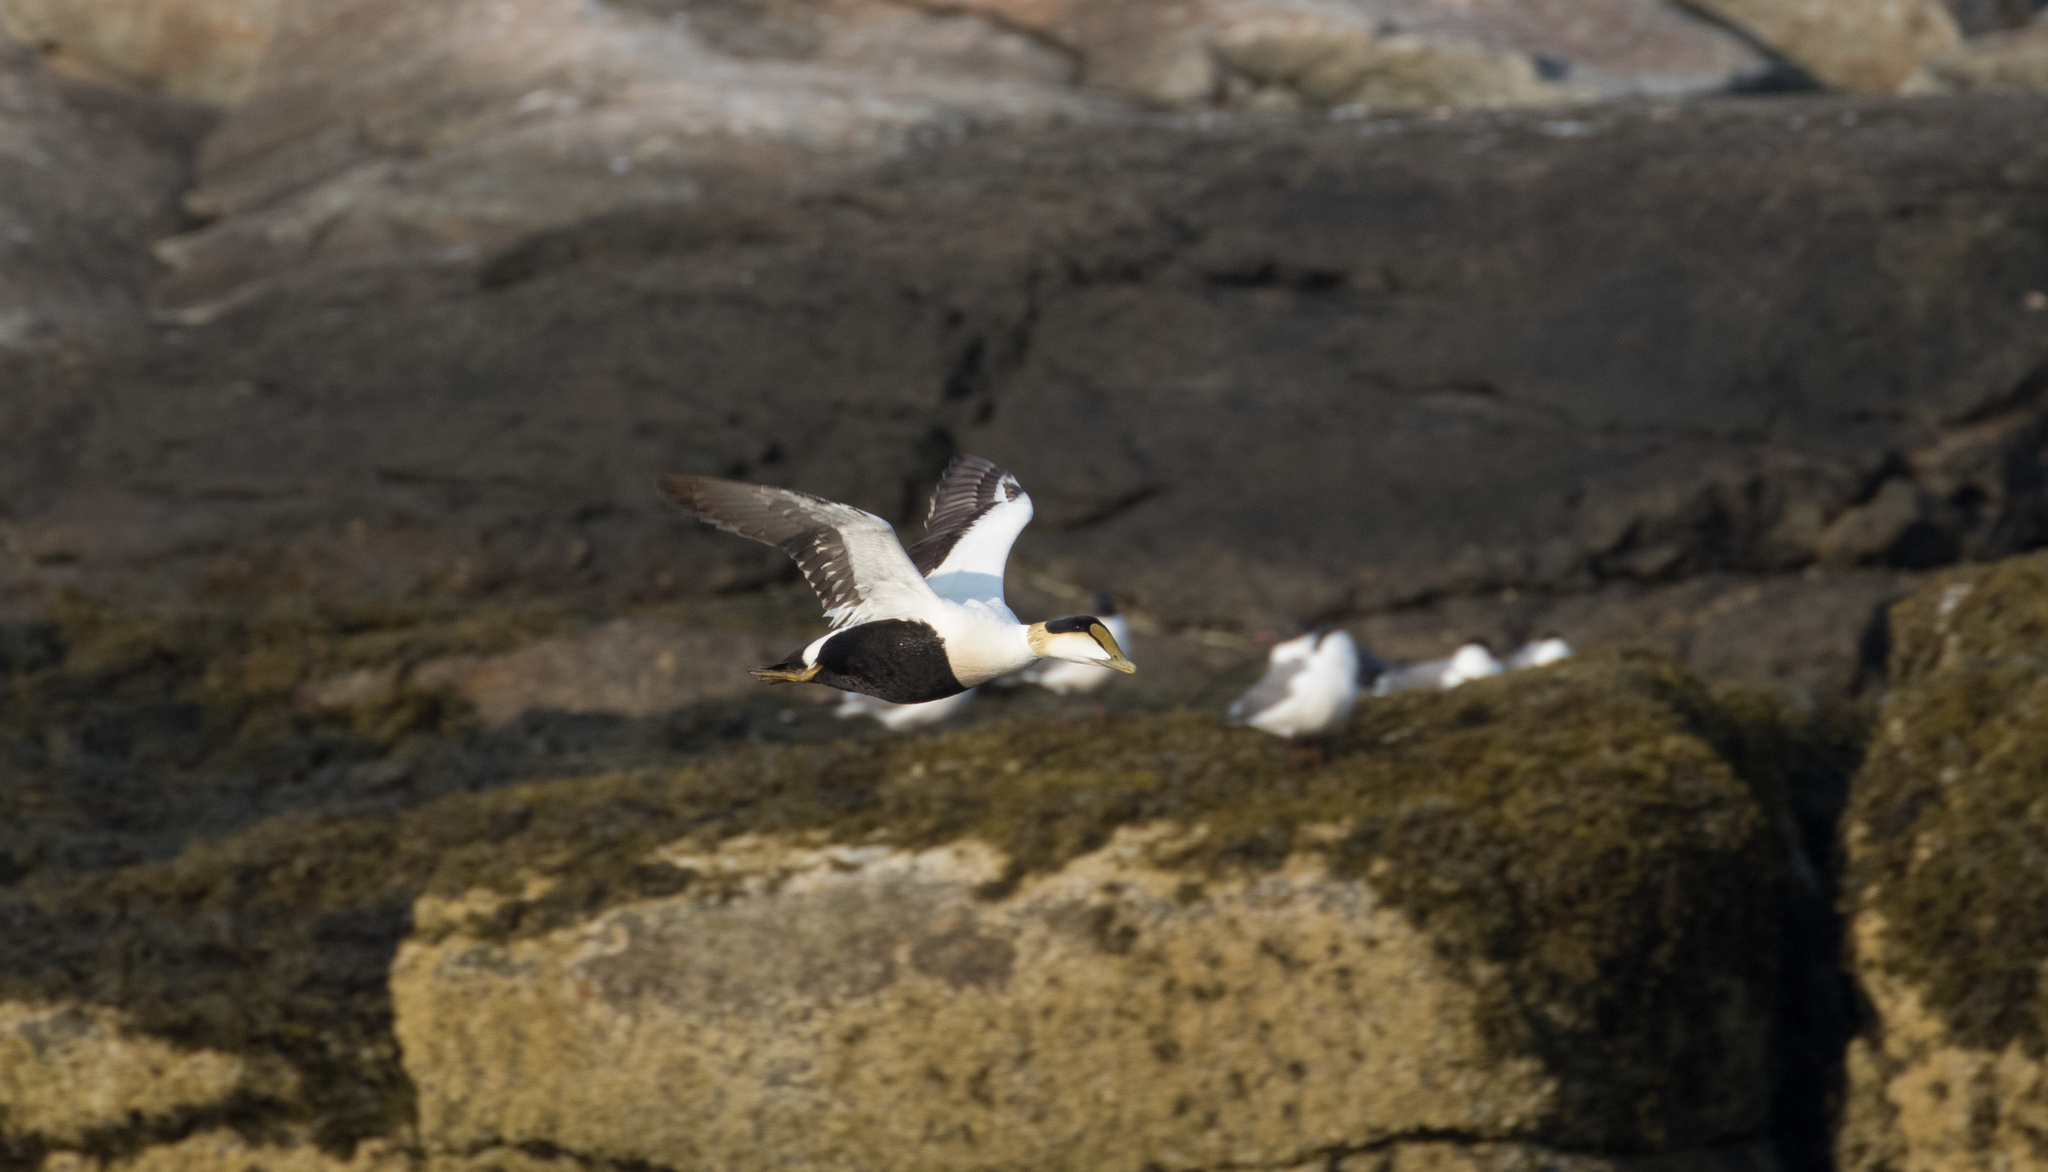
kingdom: Animalia
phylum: Chordata
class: Aves
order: Anseriformes
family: Anatidae
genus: Somateria
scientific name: Somateria mollissima
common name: Common eider
